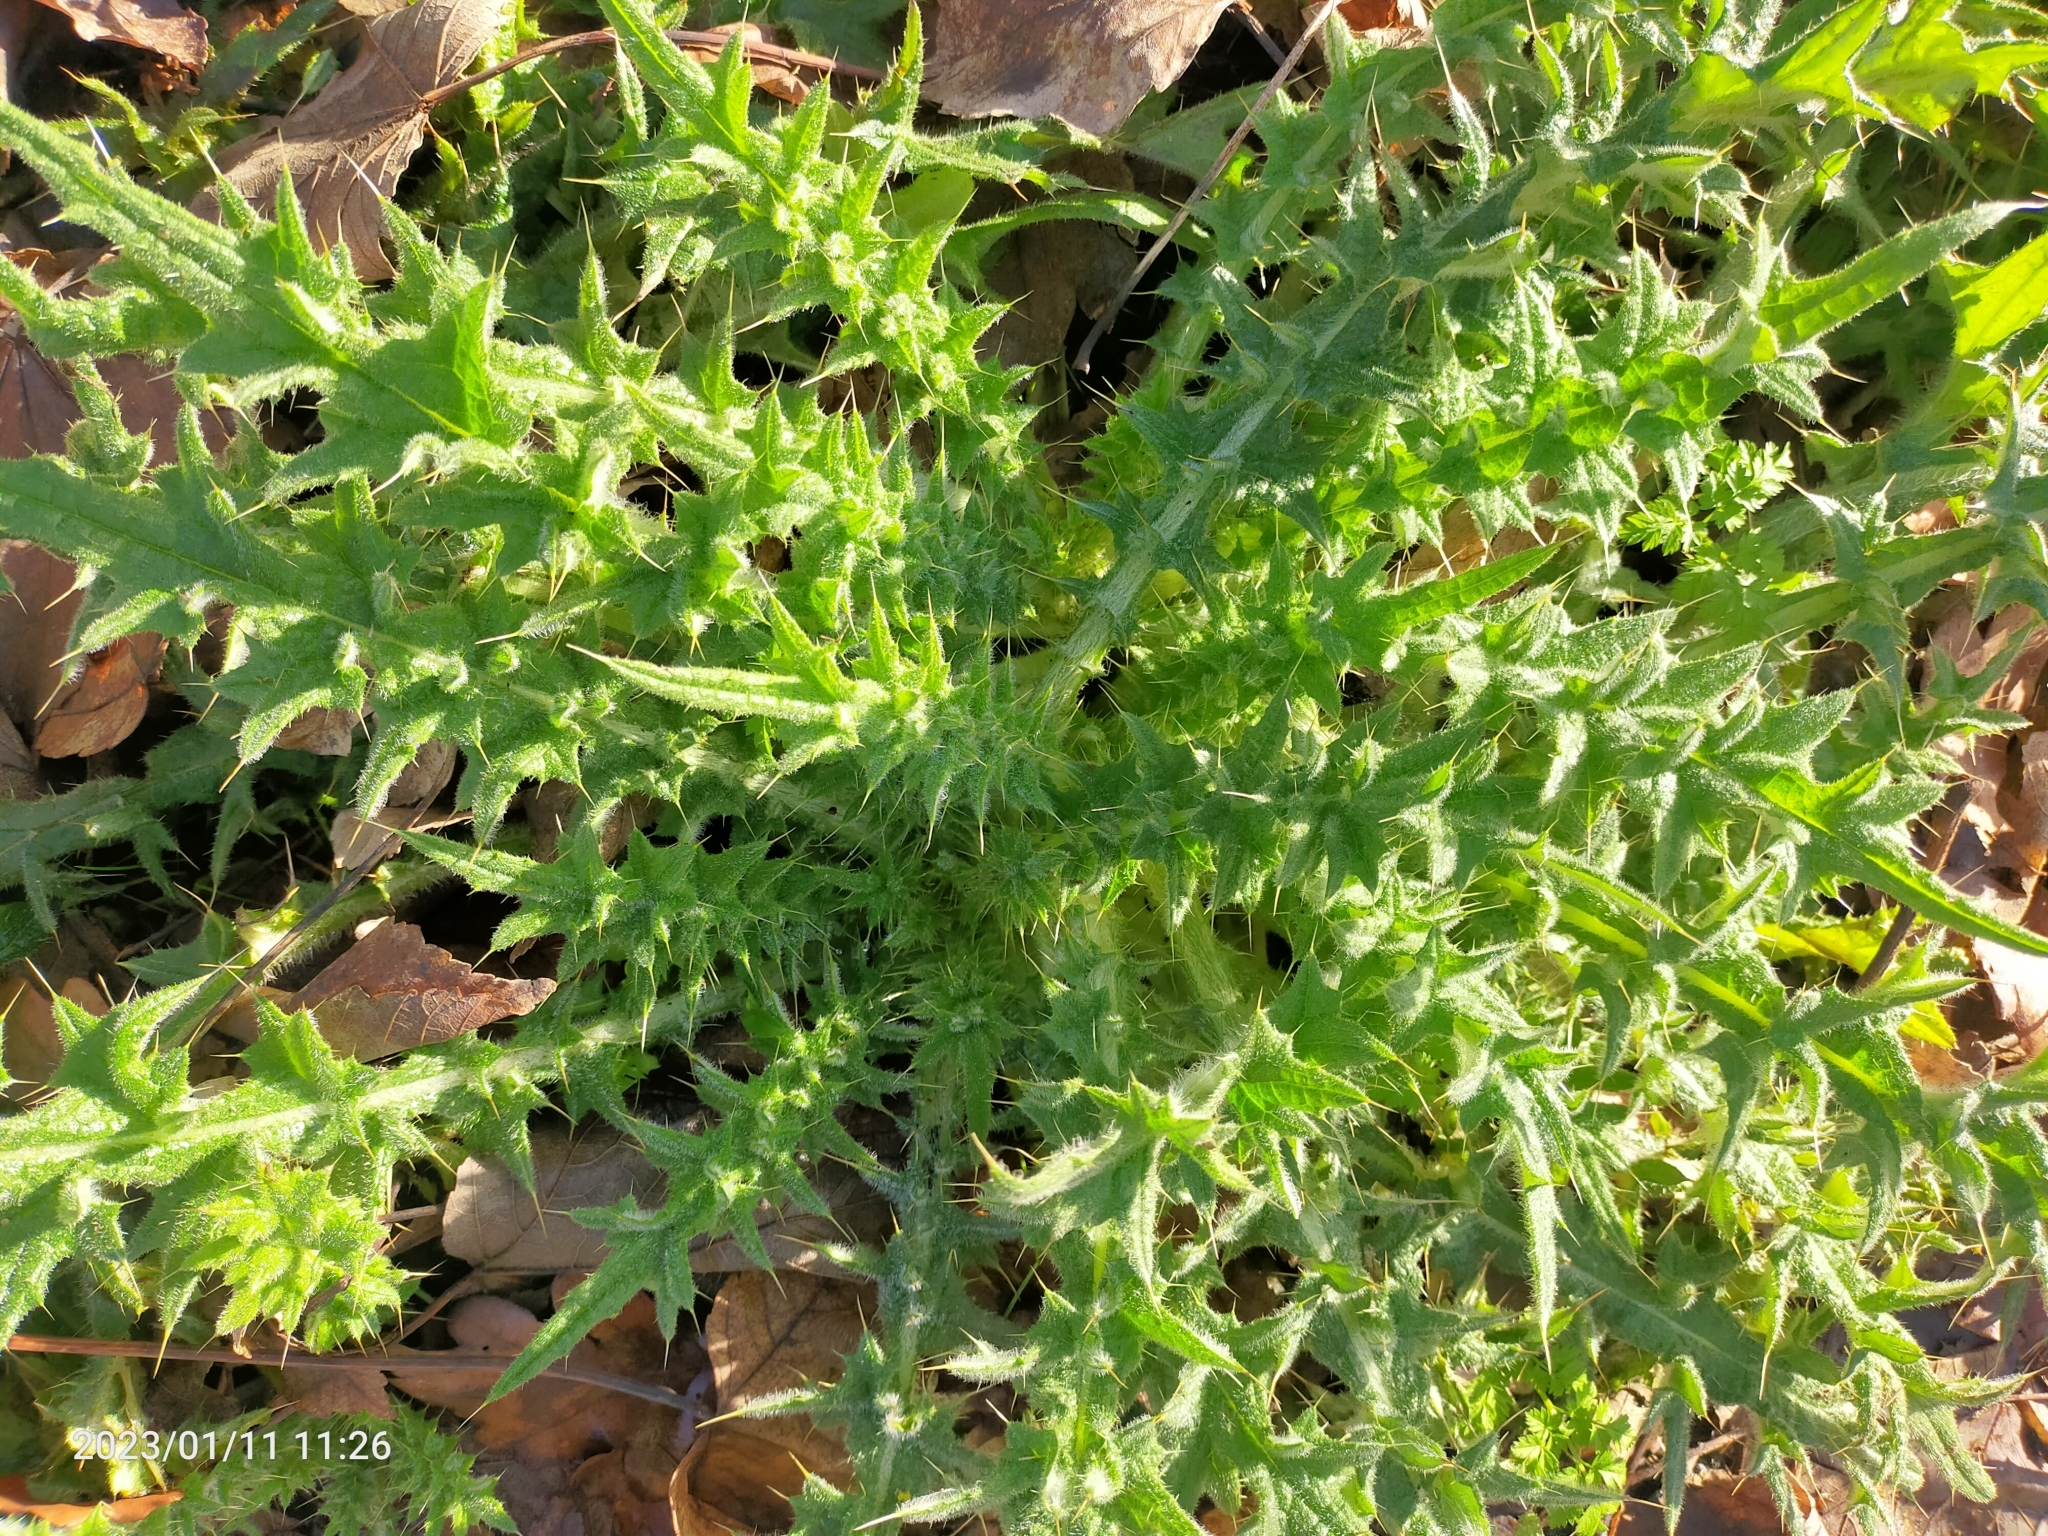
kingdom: Plantae
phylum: Tracheophyta
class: Magnoliopsida
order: Asterales
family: Asteraceae
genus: Cirsium
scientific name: Cirsium vulgare
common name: Bull thistle
